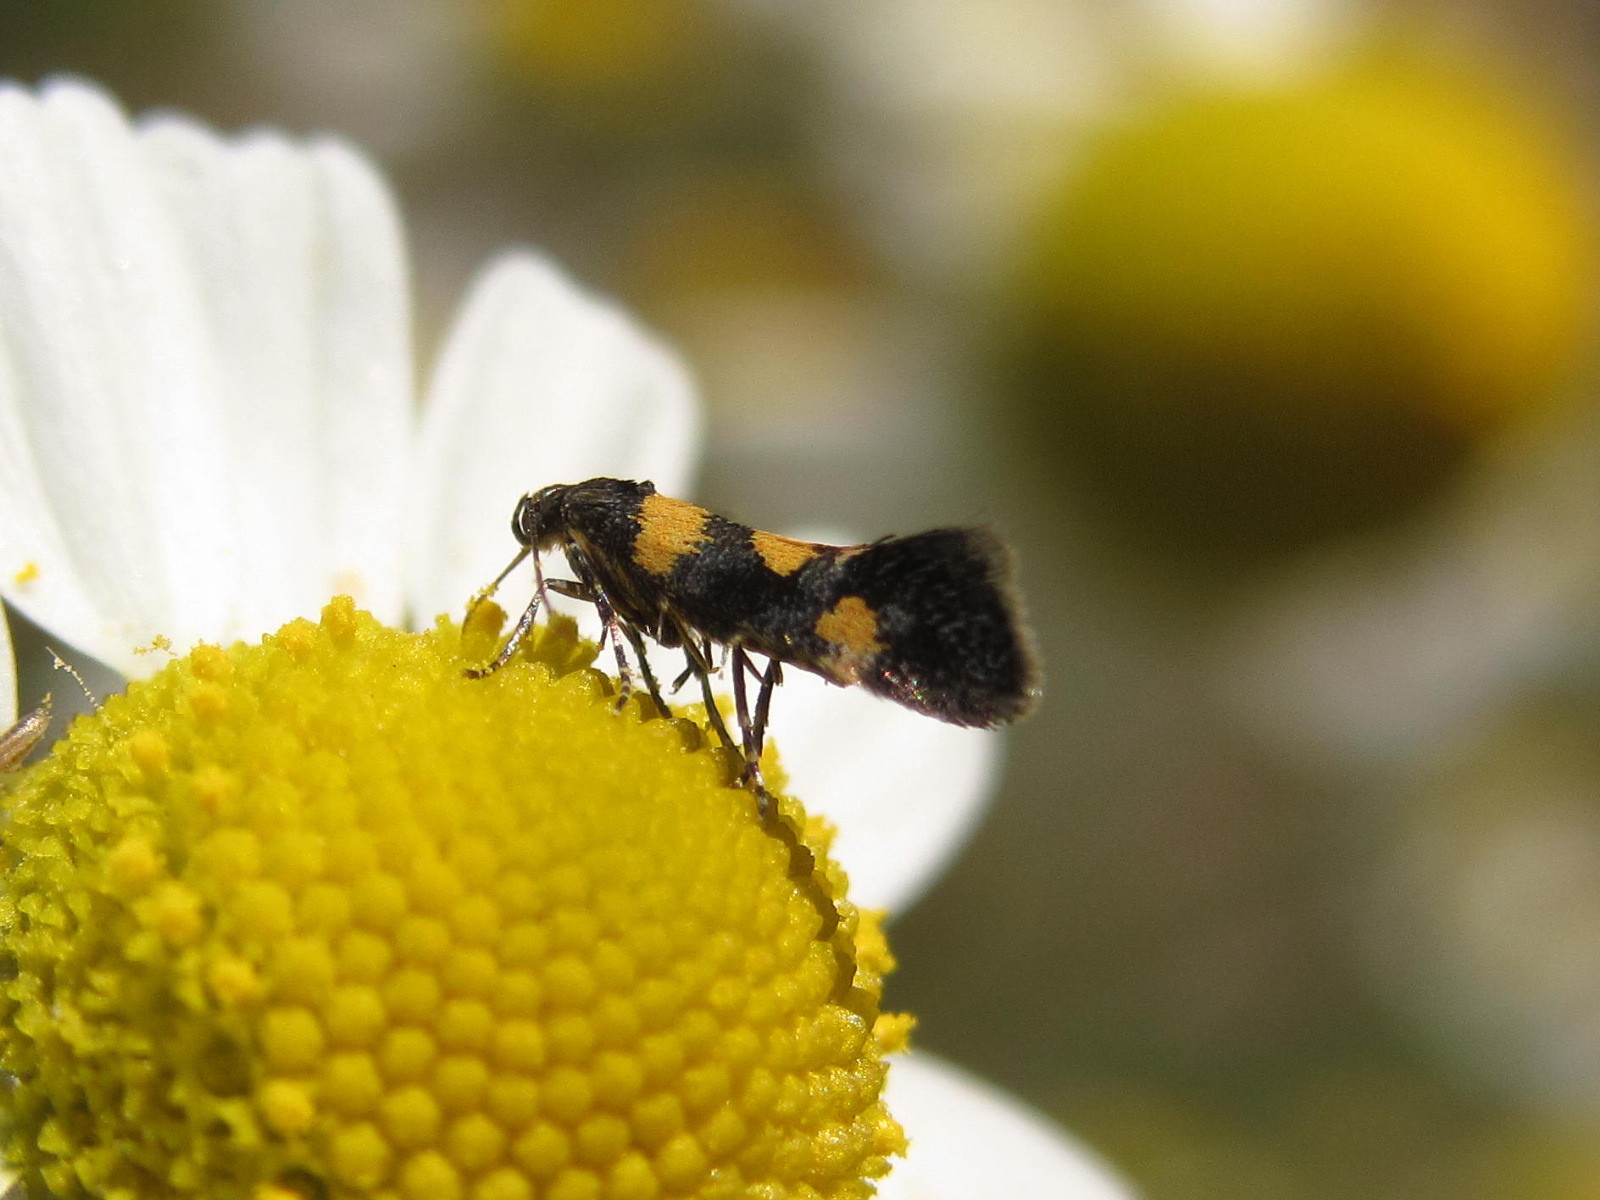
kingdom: Animalia
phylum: Arthropoda
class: Insecta
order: Lepidoptera
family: Gelechiidae
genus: Chrysoesthia
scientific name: Chrysoesthia sexguttella
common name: Moth
